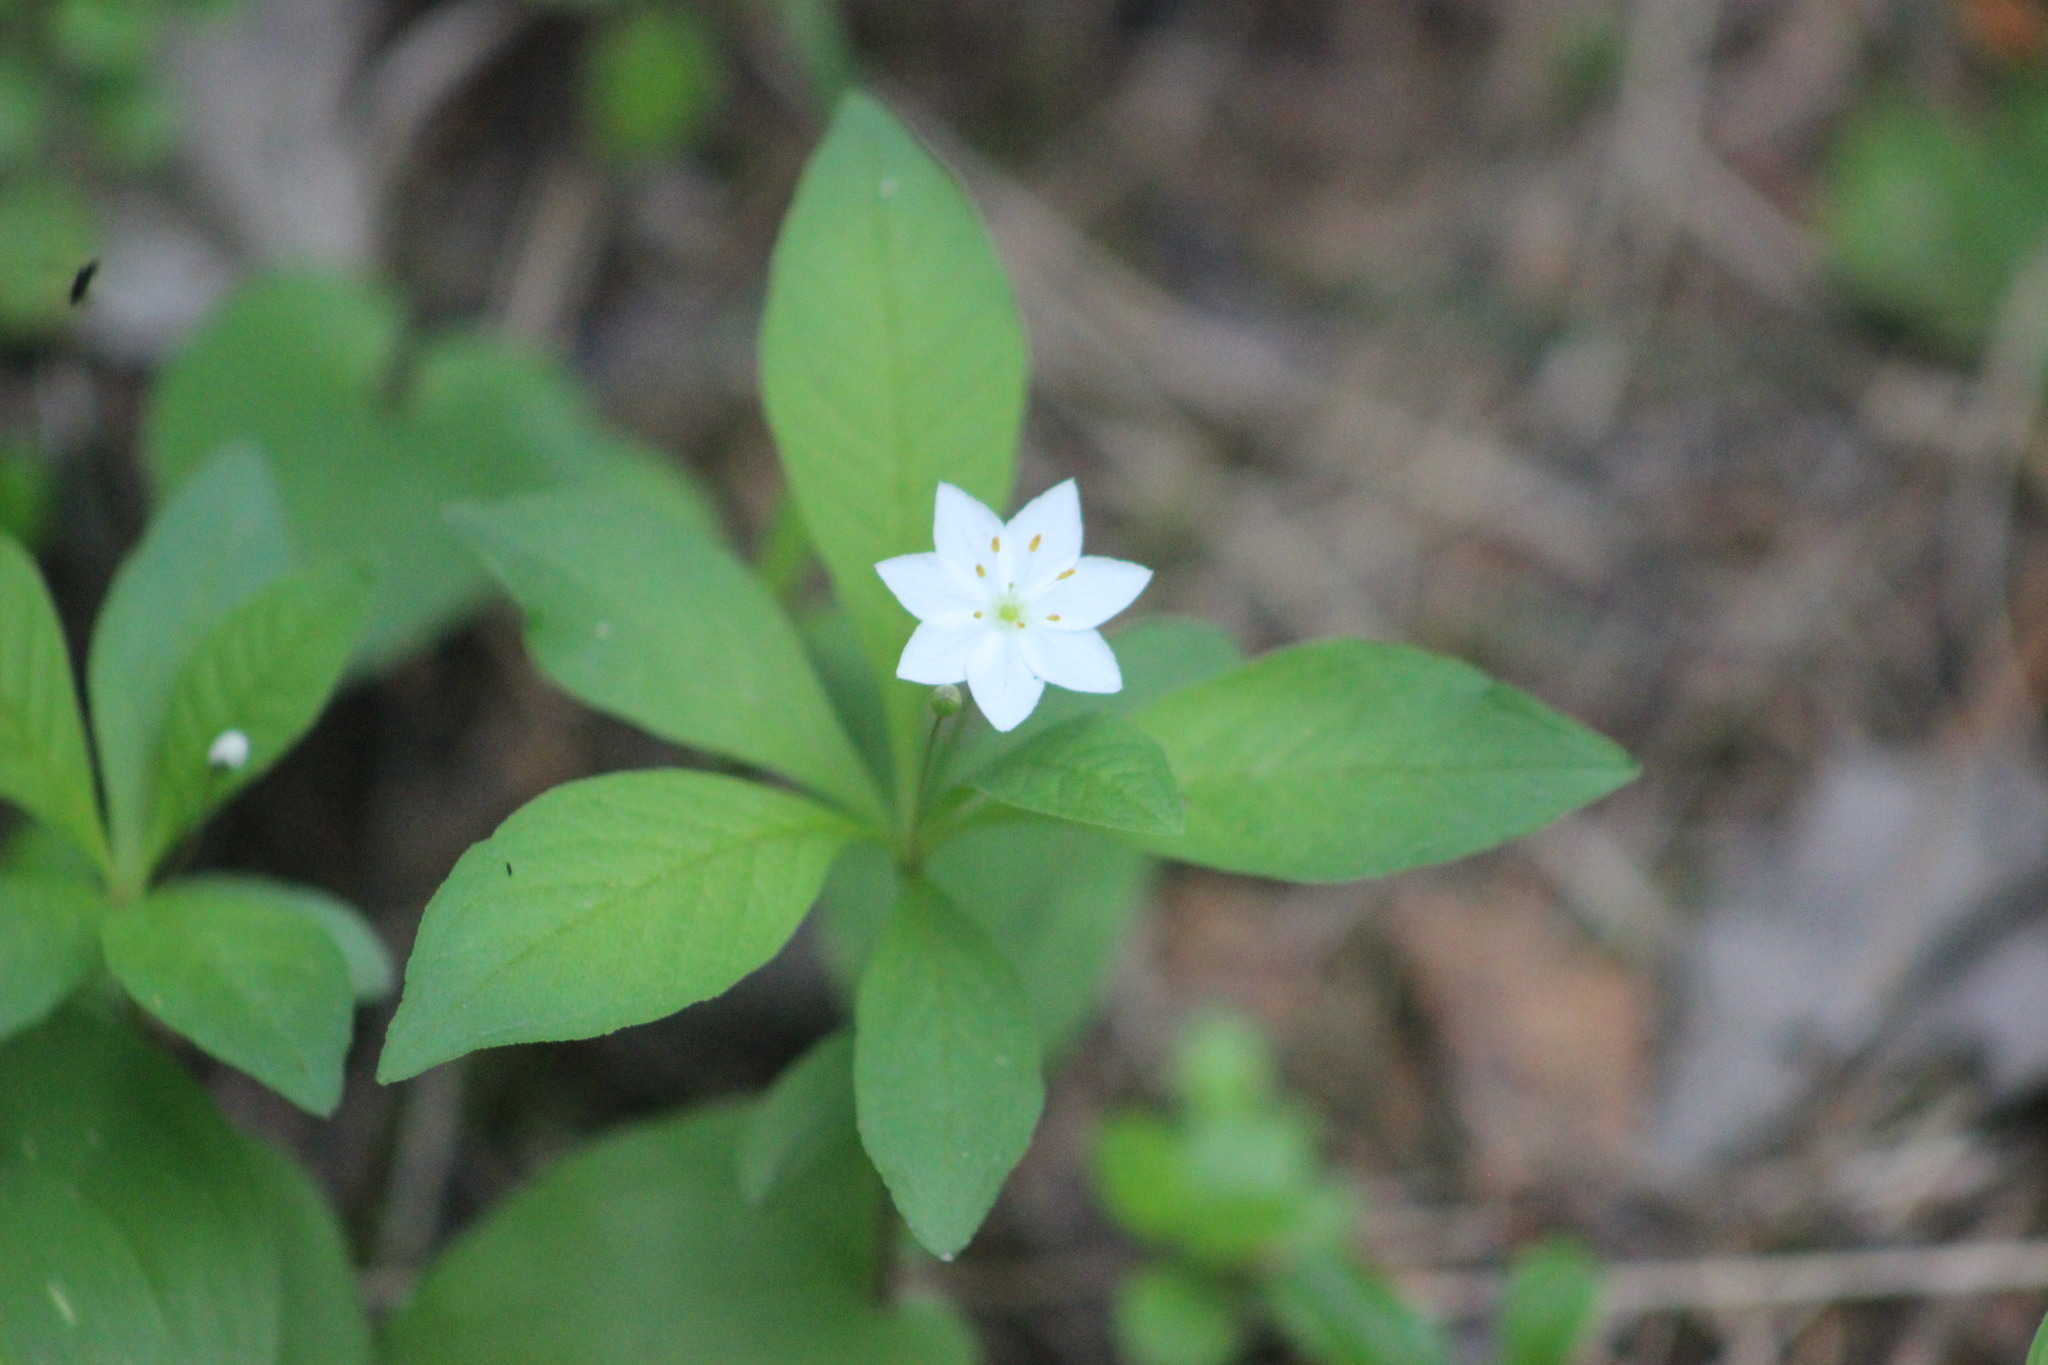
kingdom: Plantae
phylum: Tracheophyta
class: Magnoliopsida
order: Ericales
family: Primulaceae
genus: Lysimachia
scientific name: Lysimachia europaea
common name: Arctic starflower
